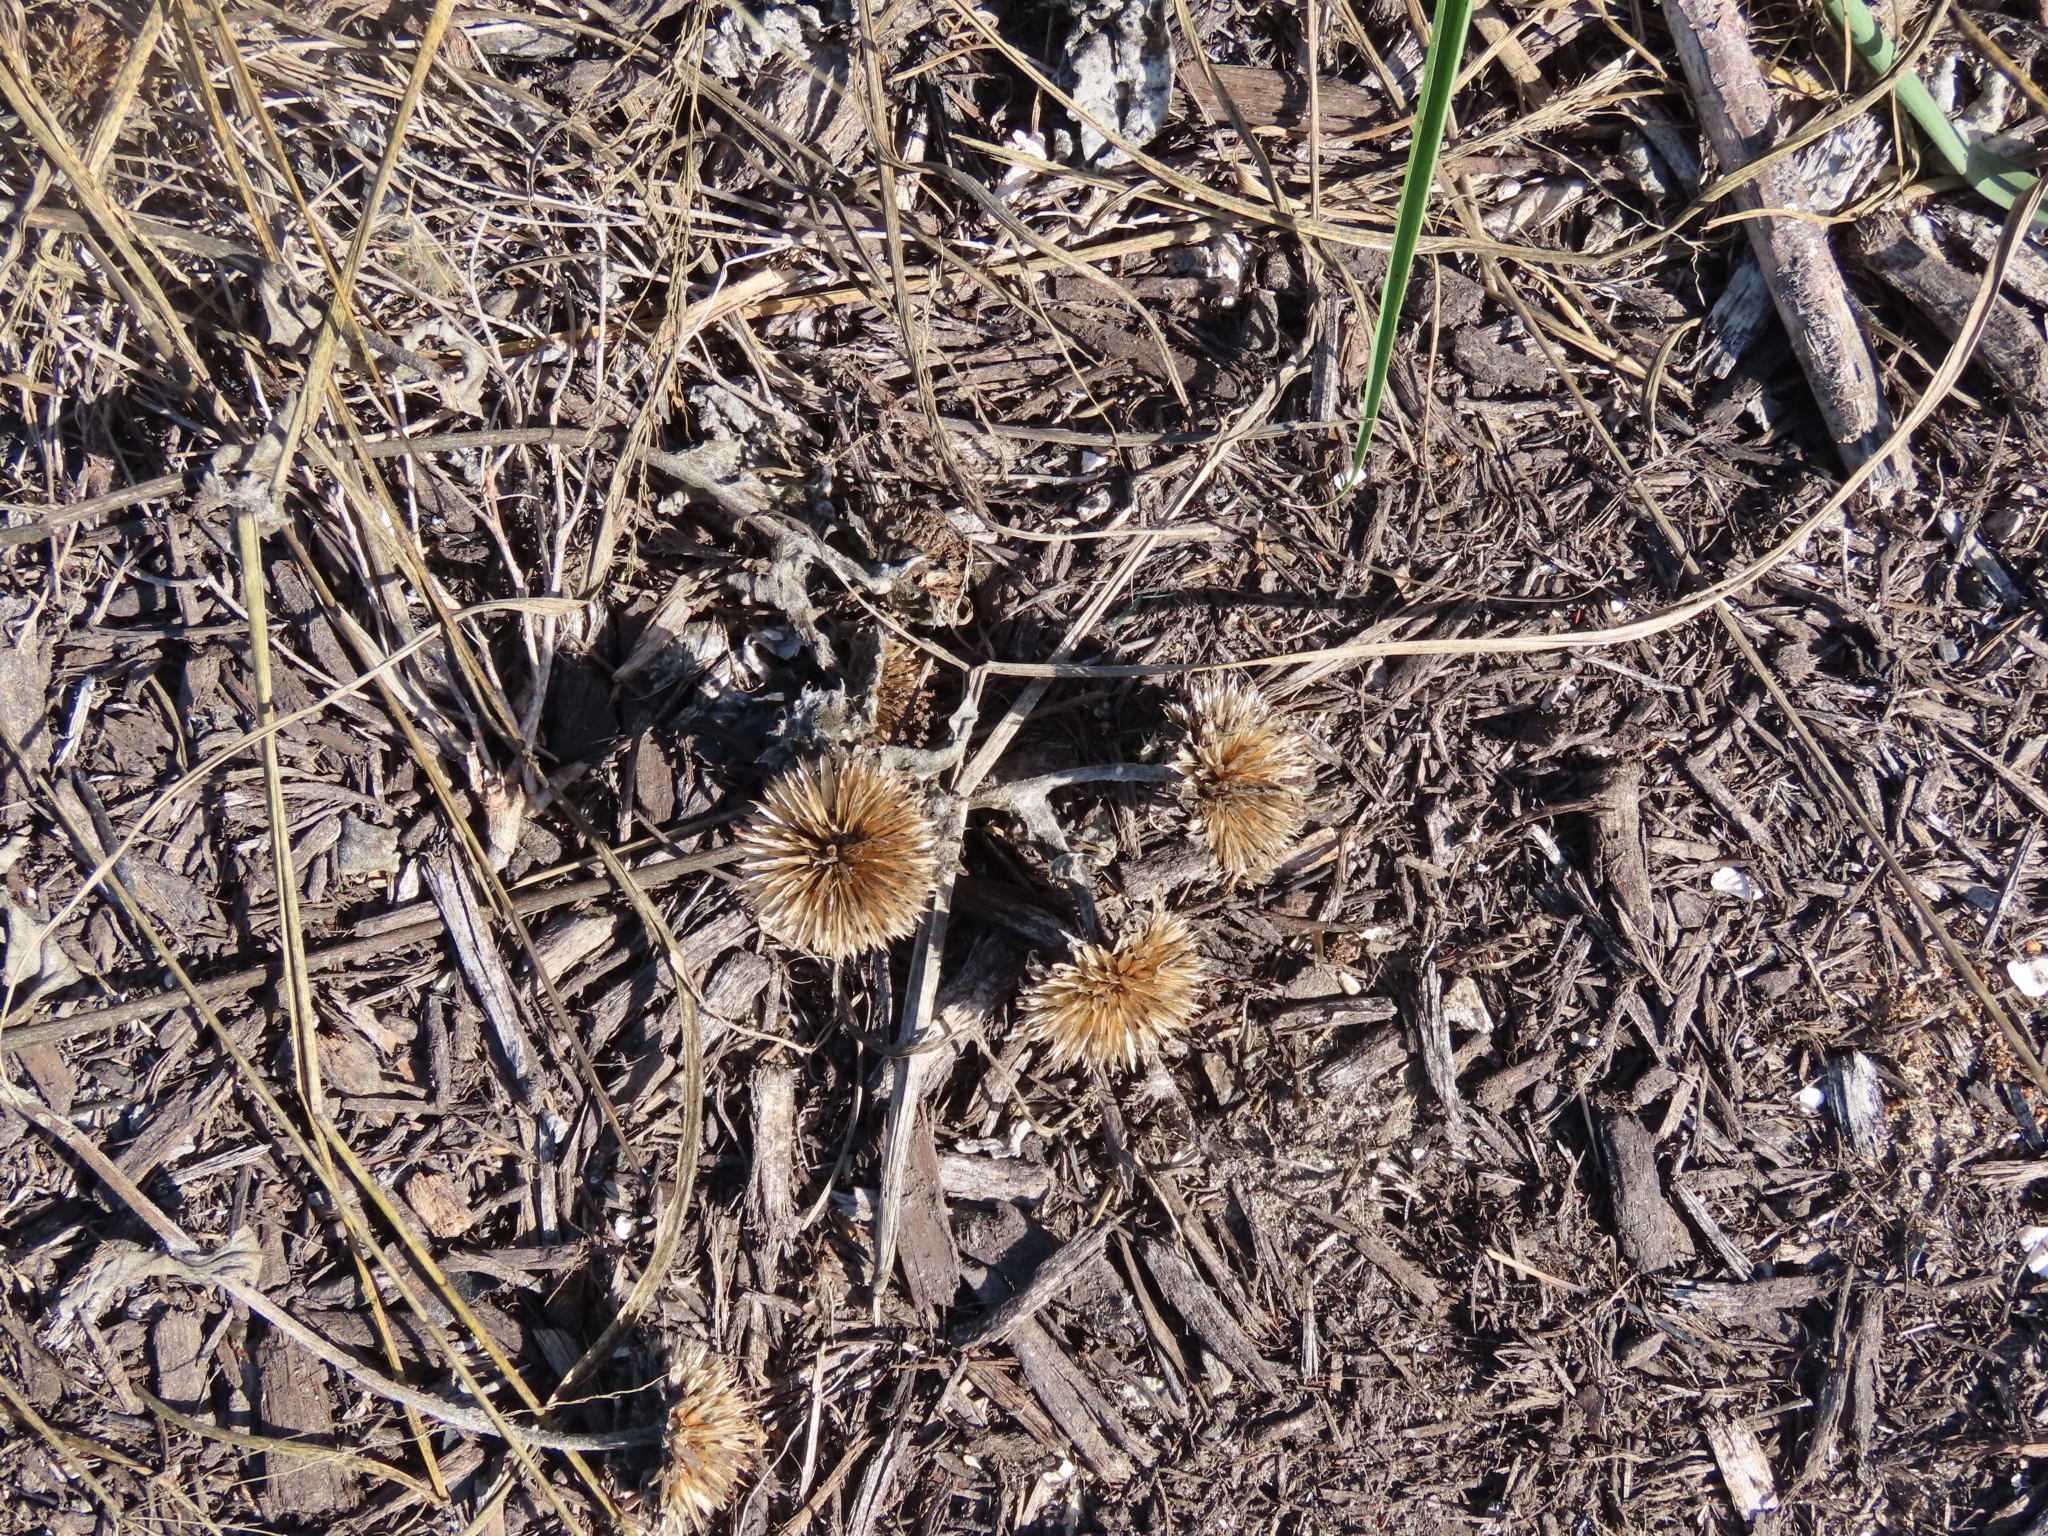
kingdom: Plantae
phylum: Tracheophyta
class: Magnoliopsida
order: Asterales
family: Asteraceae
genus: Helianthus
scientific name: Helianthus argophyllus
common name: Silverleaf sunflower
